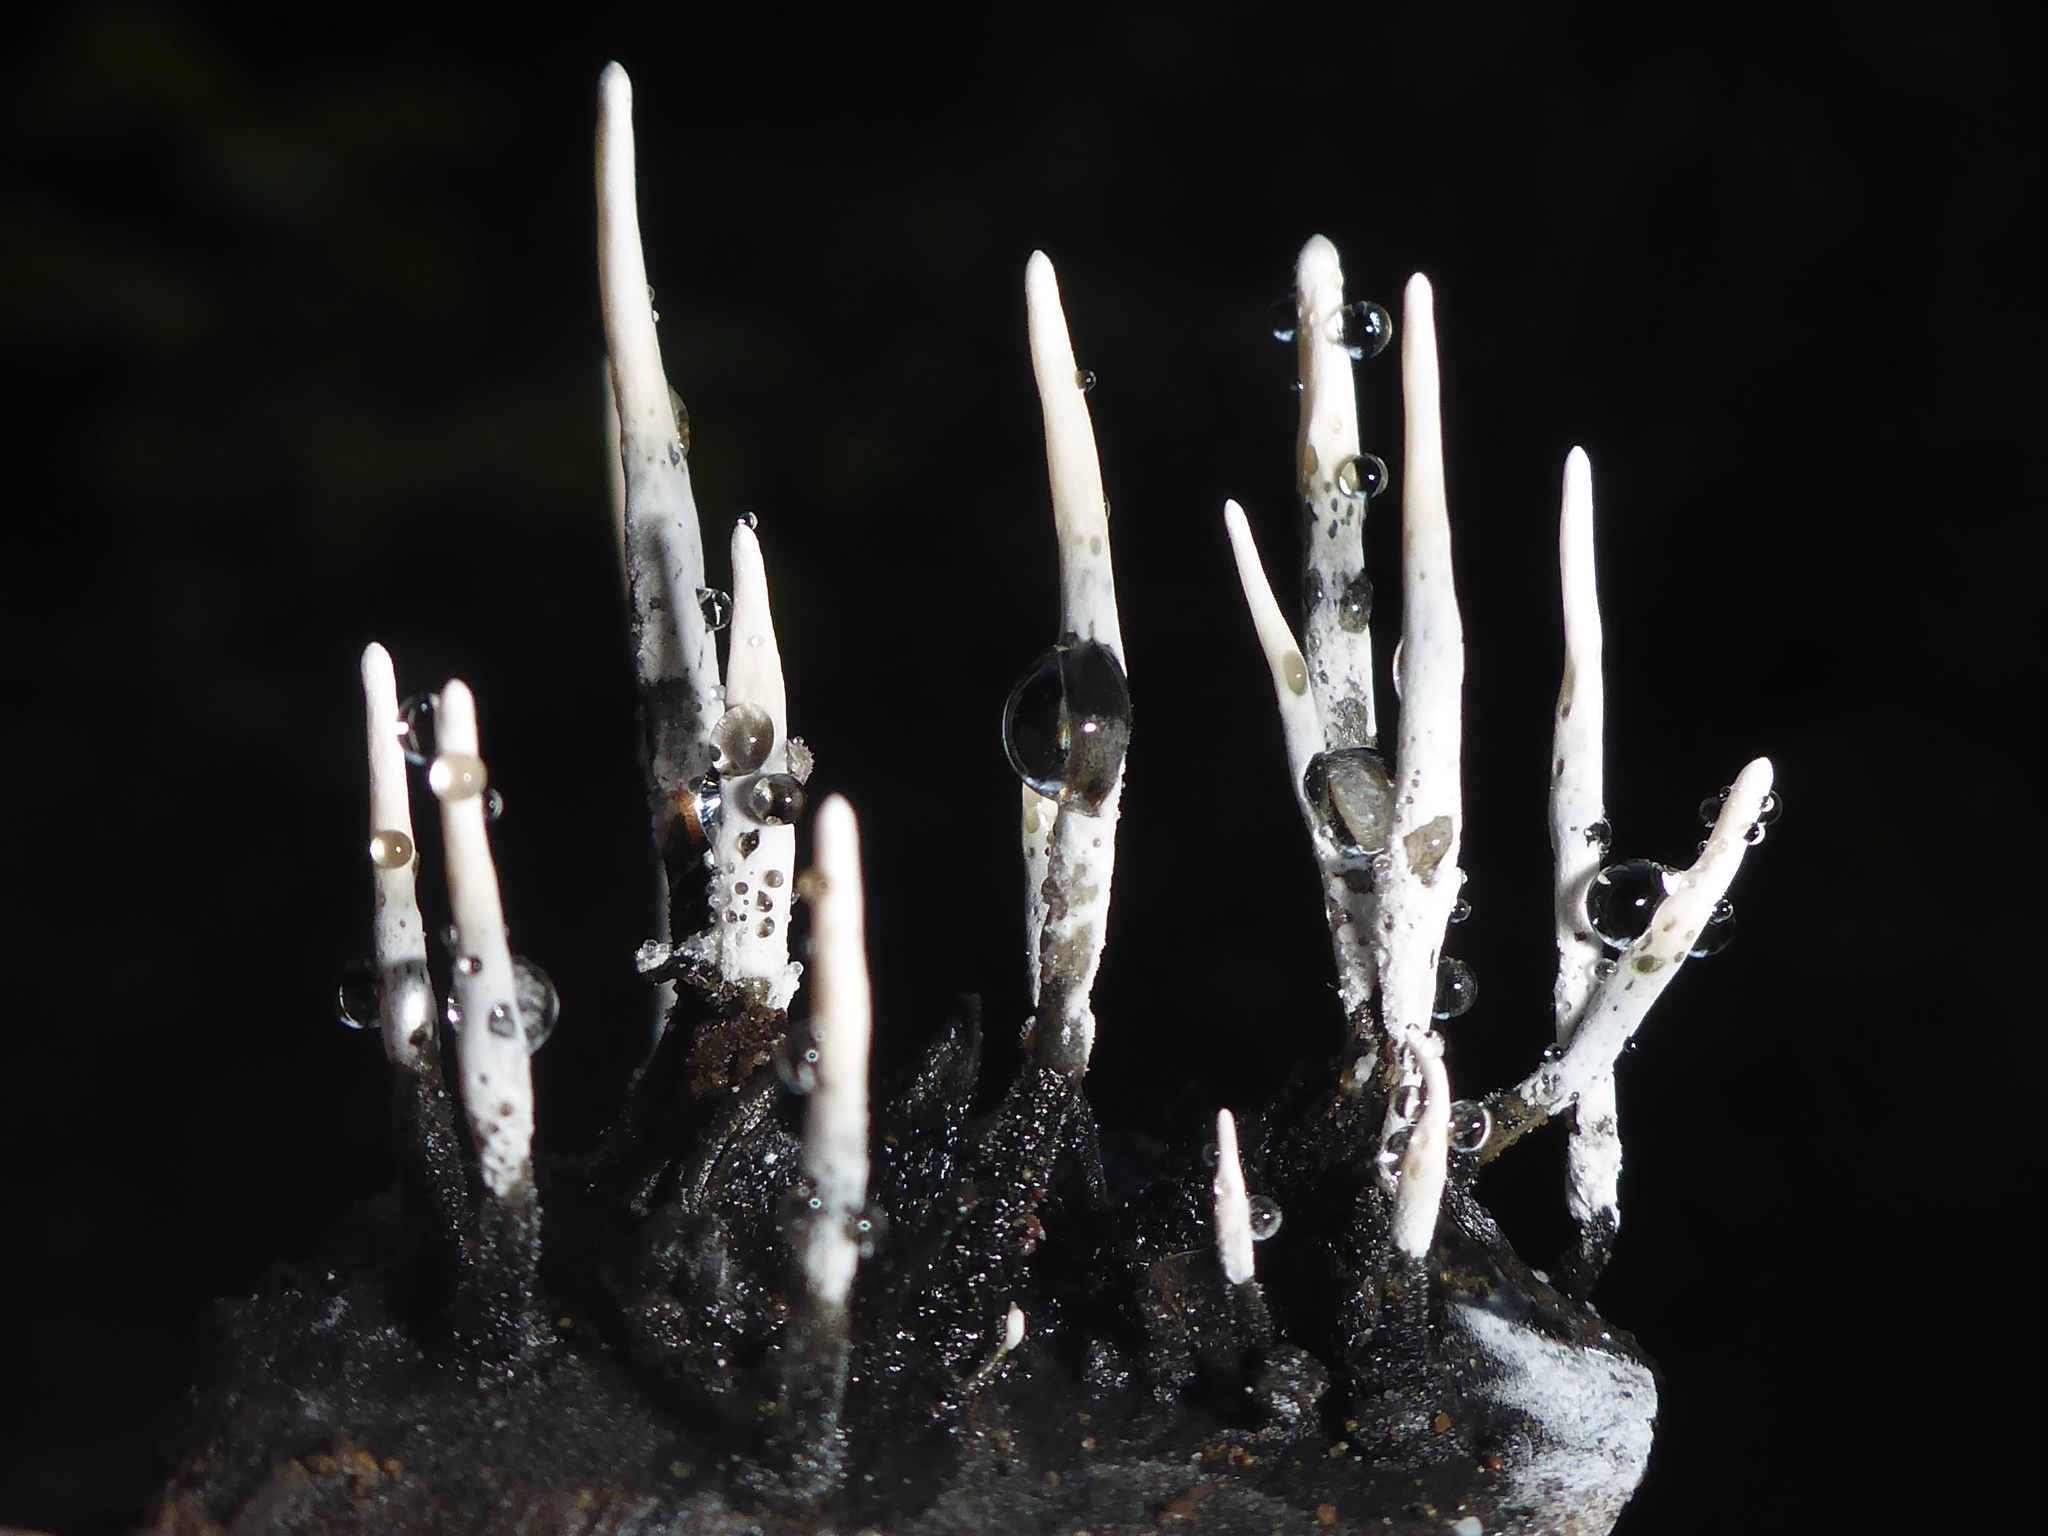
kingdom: Fungi
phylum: Ascomycota
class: Sordariomycetes
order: Xylariales
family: Xylariaceae
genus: Xylaria
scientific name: Xylaria hypoxylon
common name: Candle-snuff fungus
